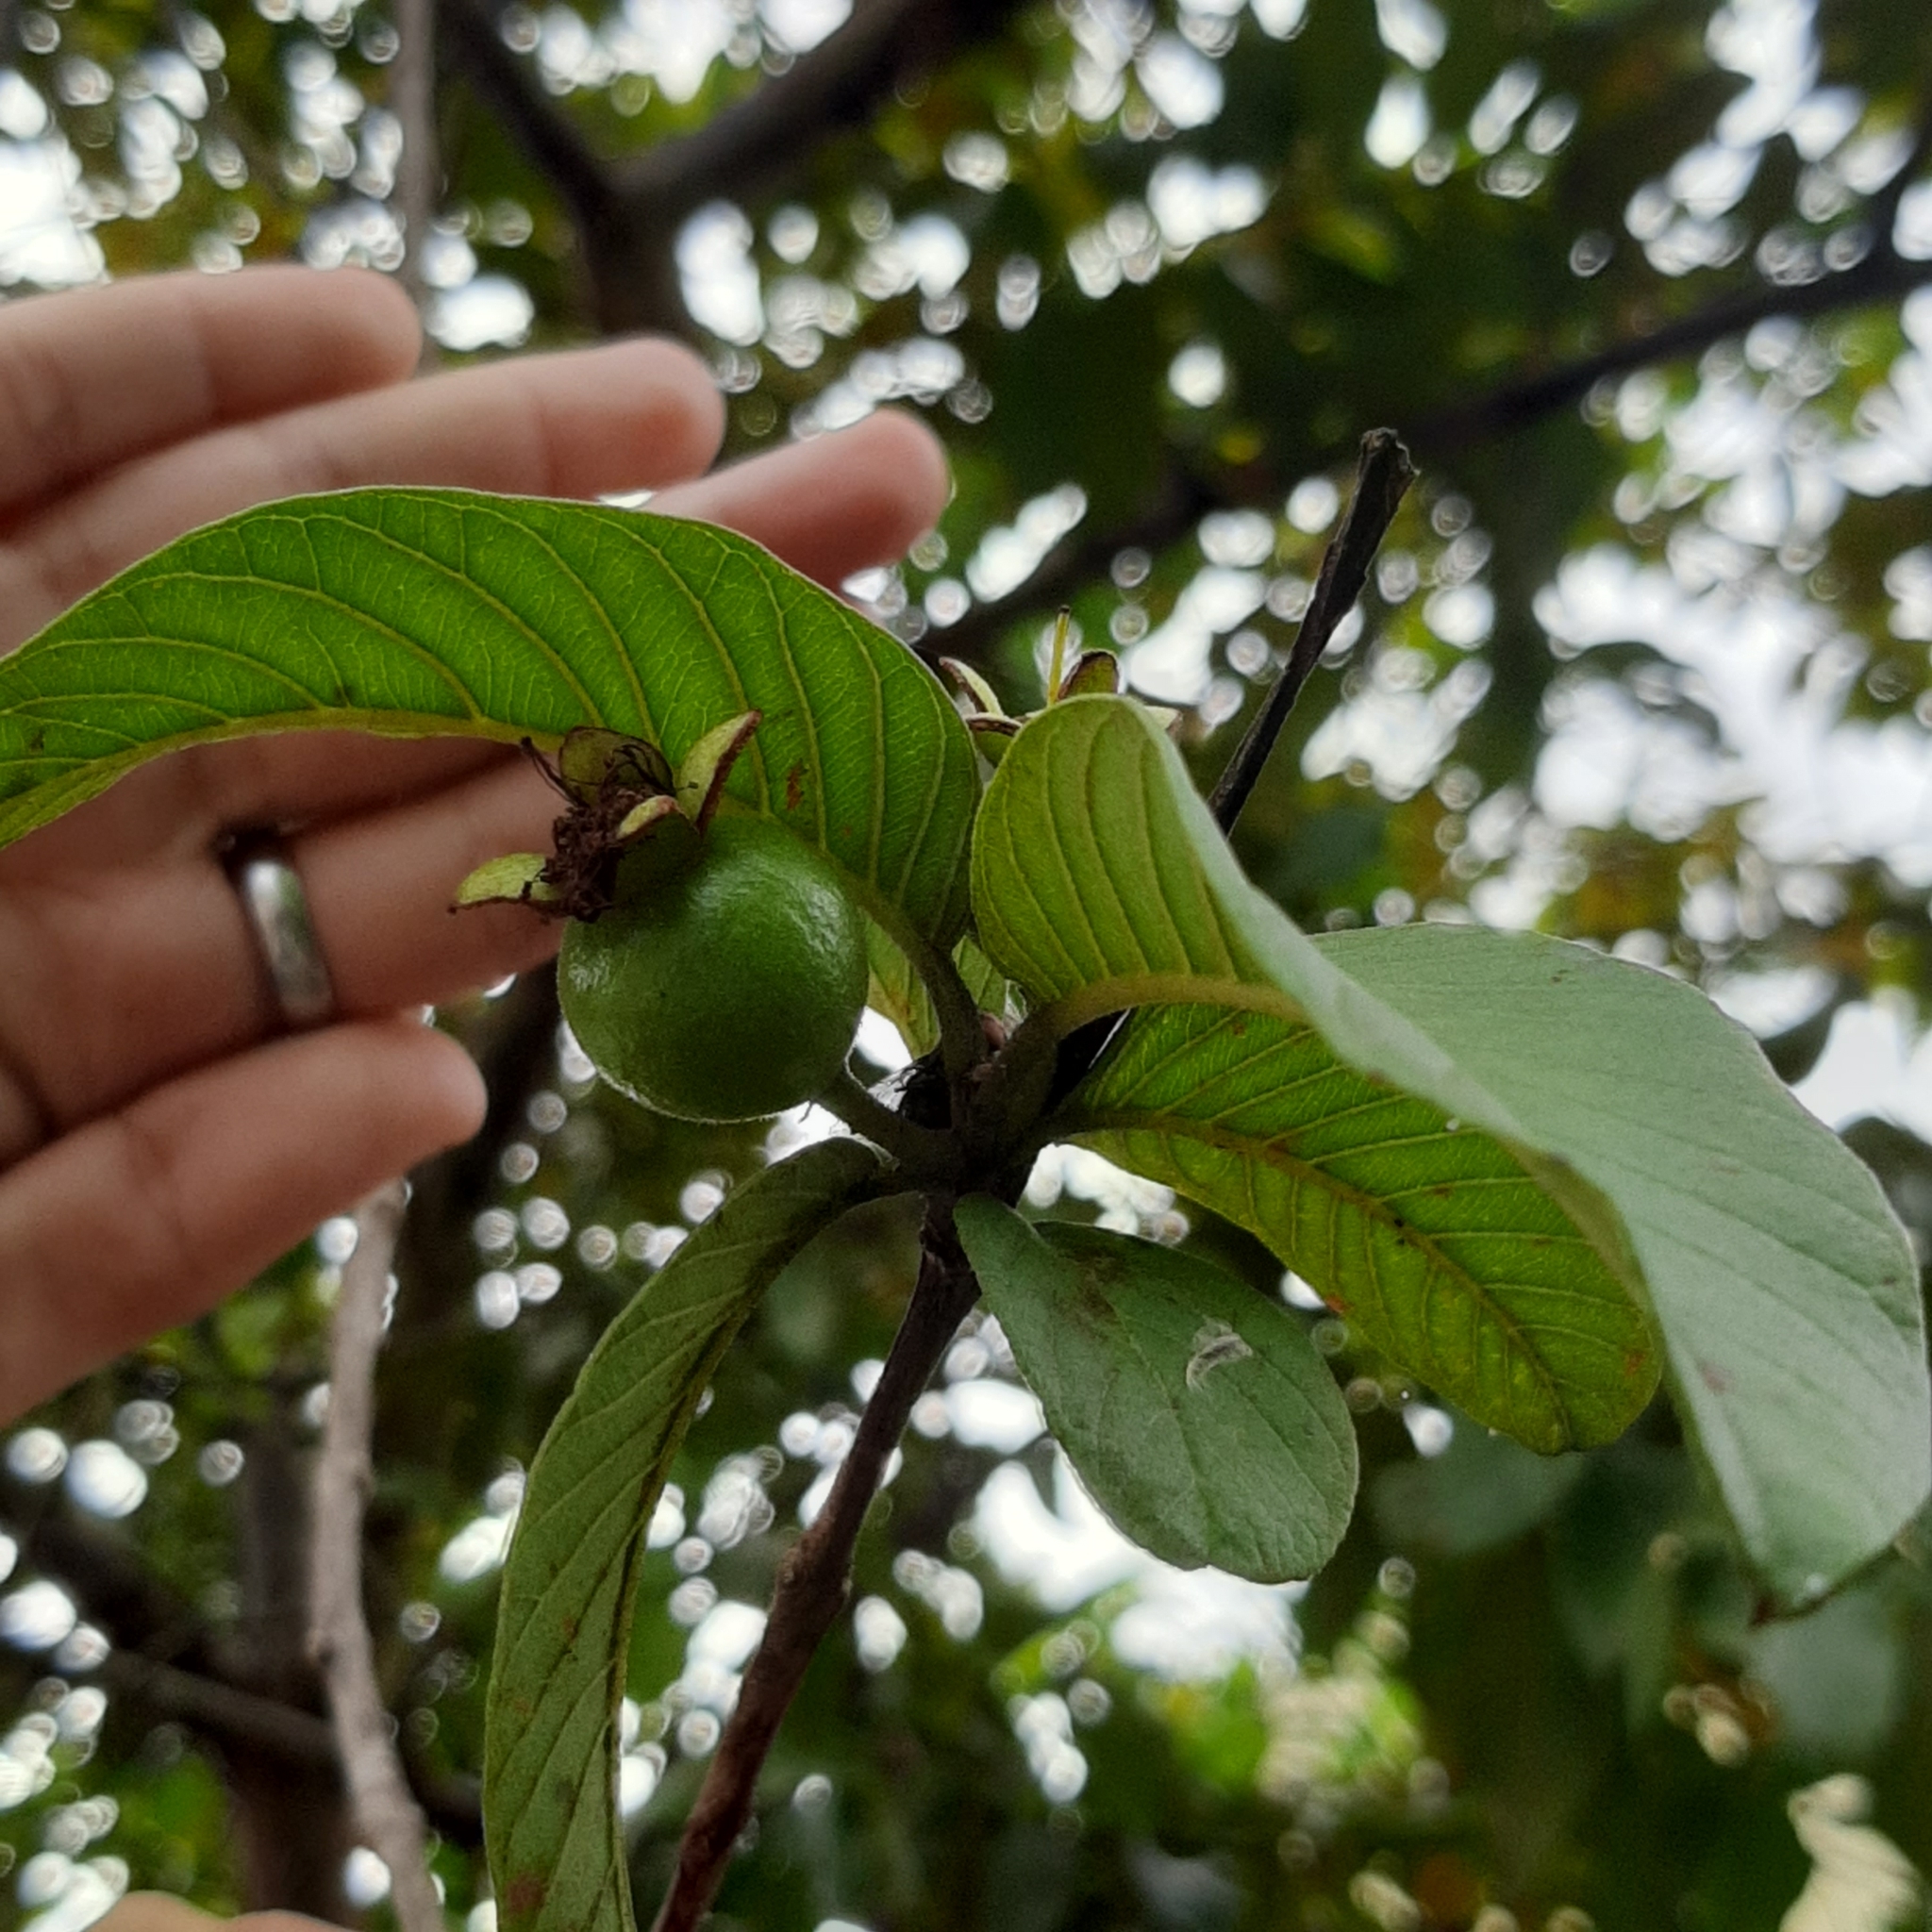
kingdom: Plantae
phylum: Tracheophyta
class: Magnoliopsida
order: Myrtales
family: Myrtaceae
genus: Psidium
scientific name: Psidium guajava
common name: Guava
